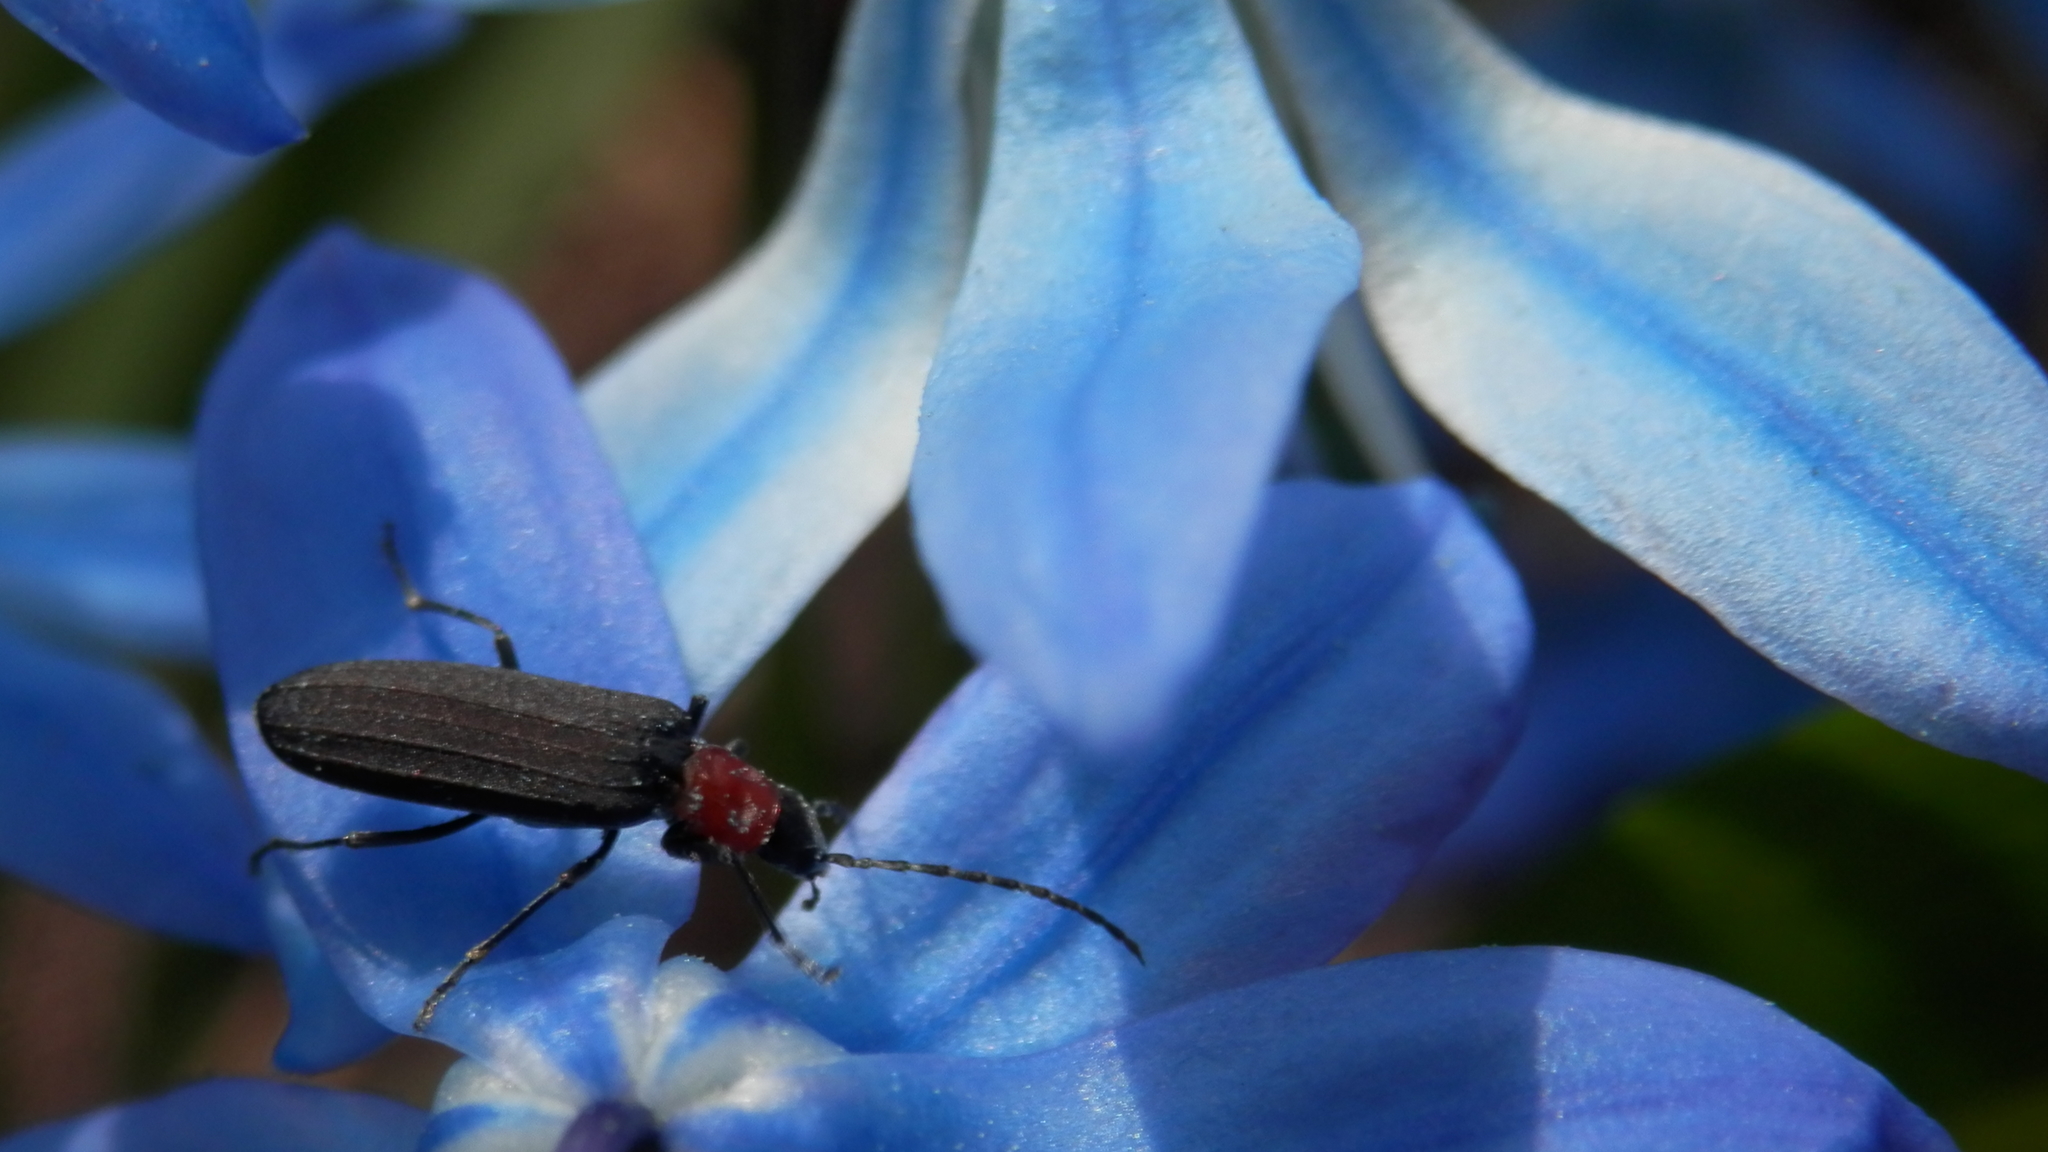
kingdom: Animalia
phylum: Arthropoda
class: Insecta
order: Coleoptera
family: Oedemeridae
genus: Ischnomera
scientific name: Ischnomera
